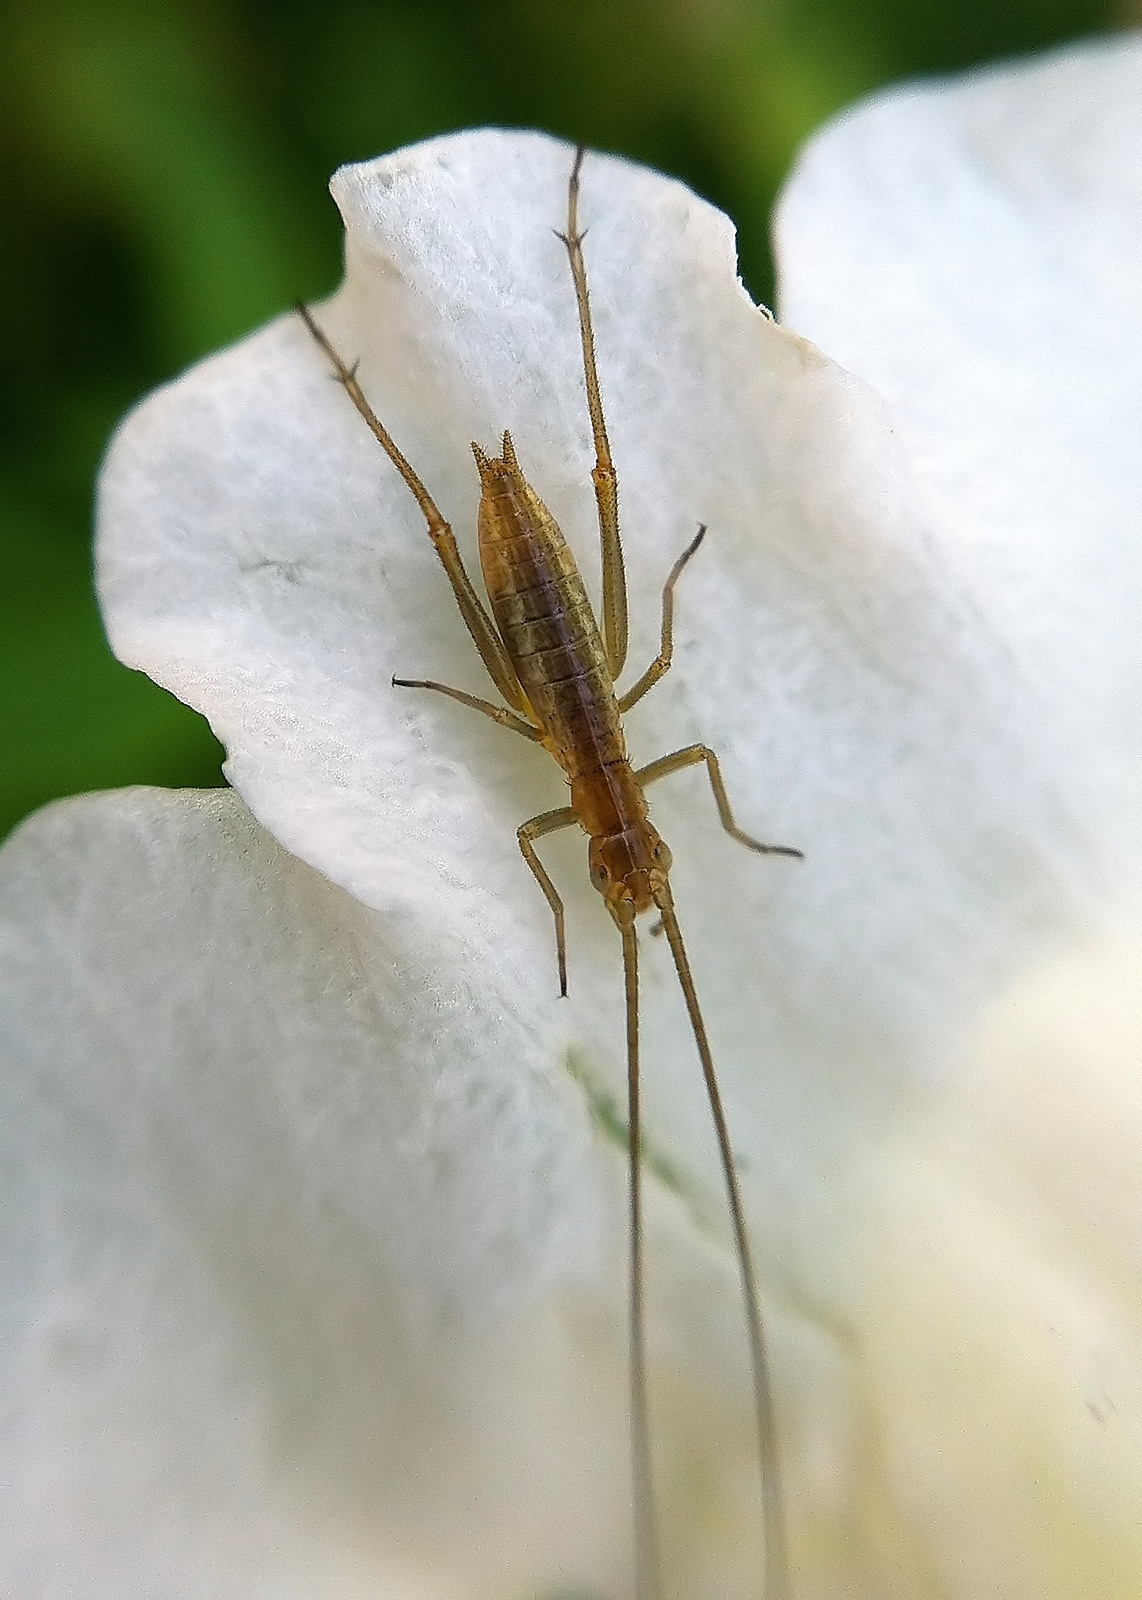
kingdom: Animalia
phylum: Arthropoda
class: Insecta
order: Orthoptera
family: Gryllidae
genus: Oecanthus
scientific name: Oecanthus pini
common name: Pine tree cricket
